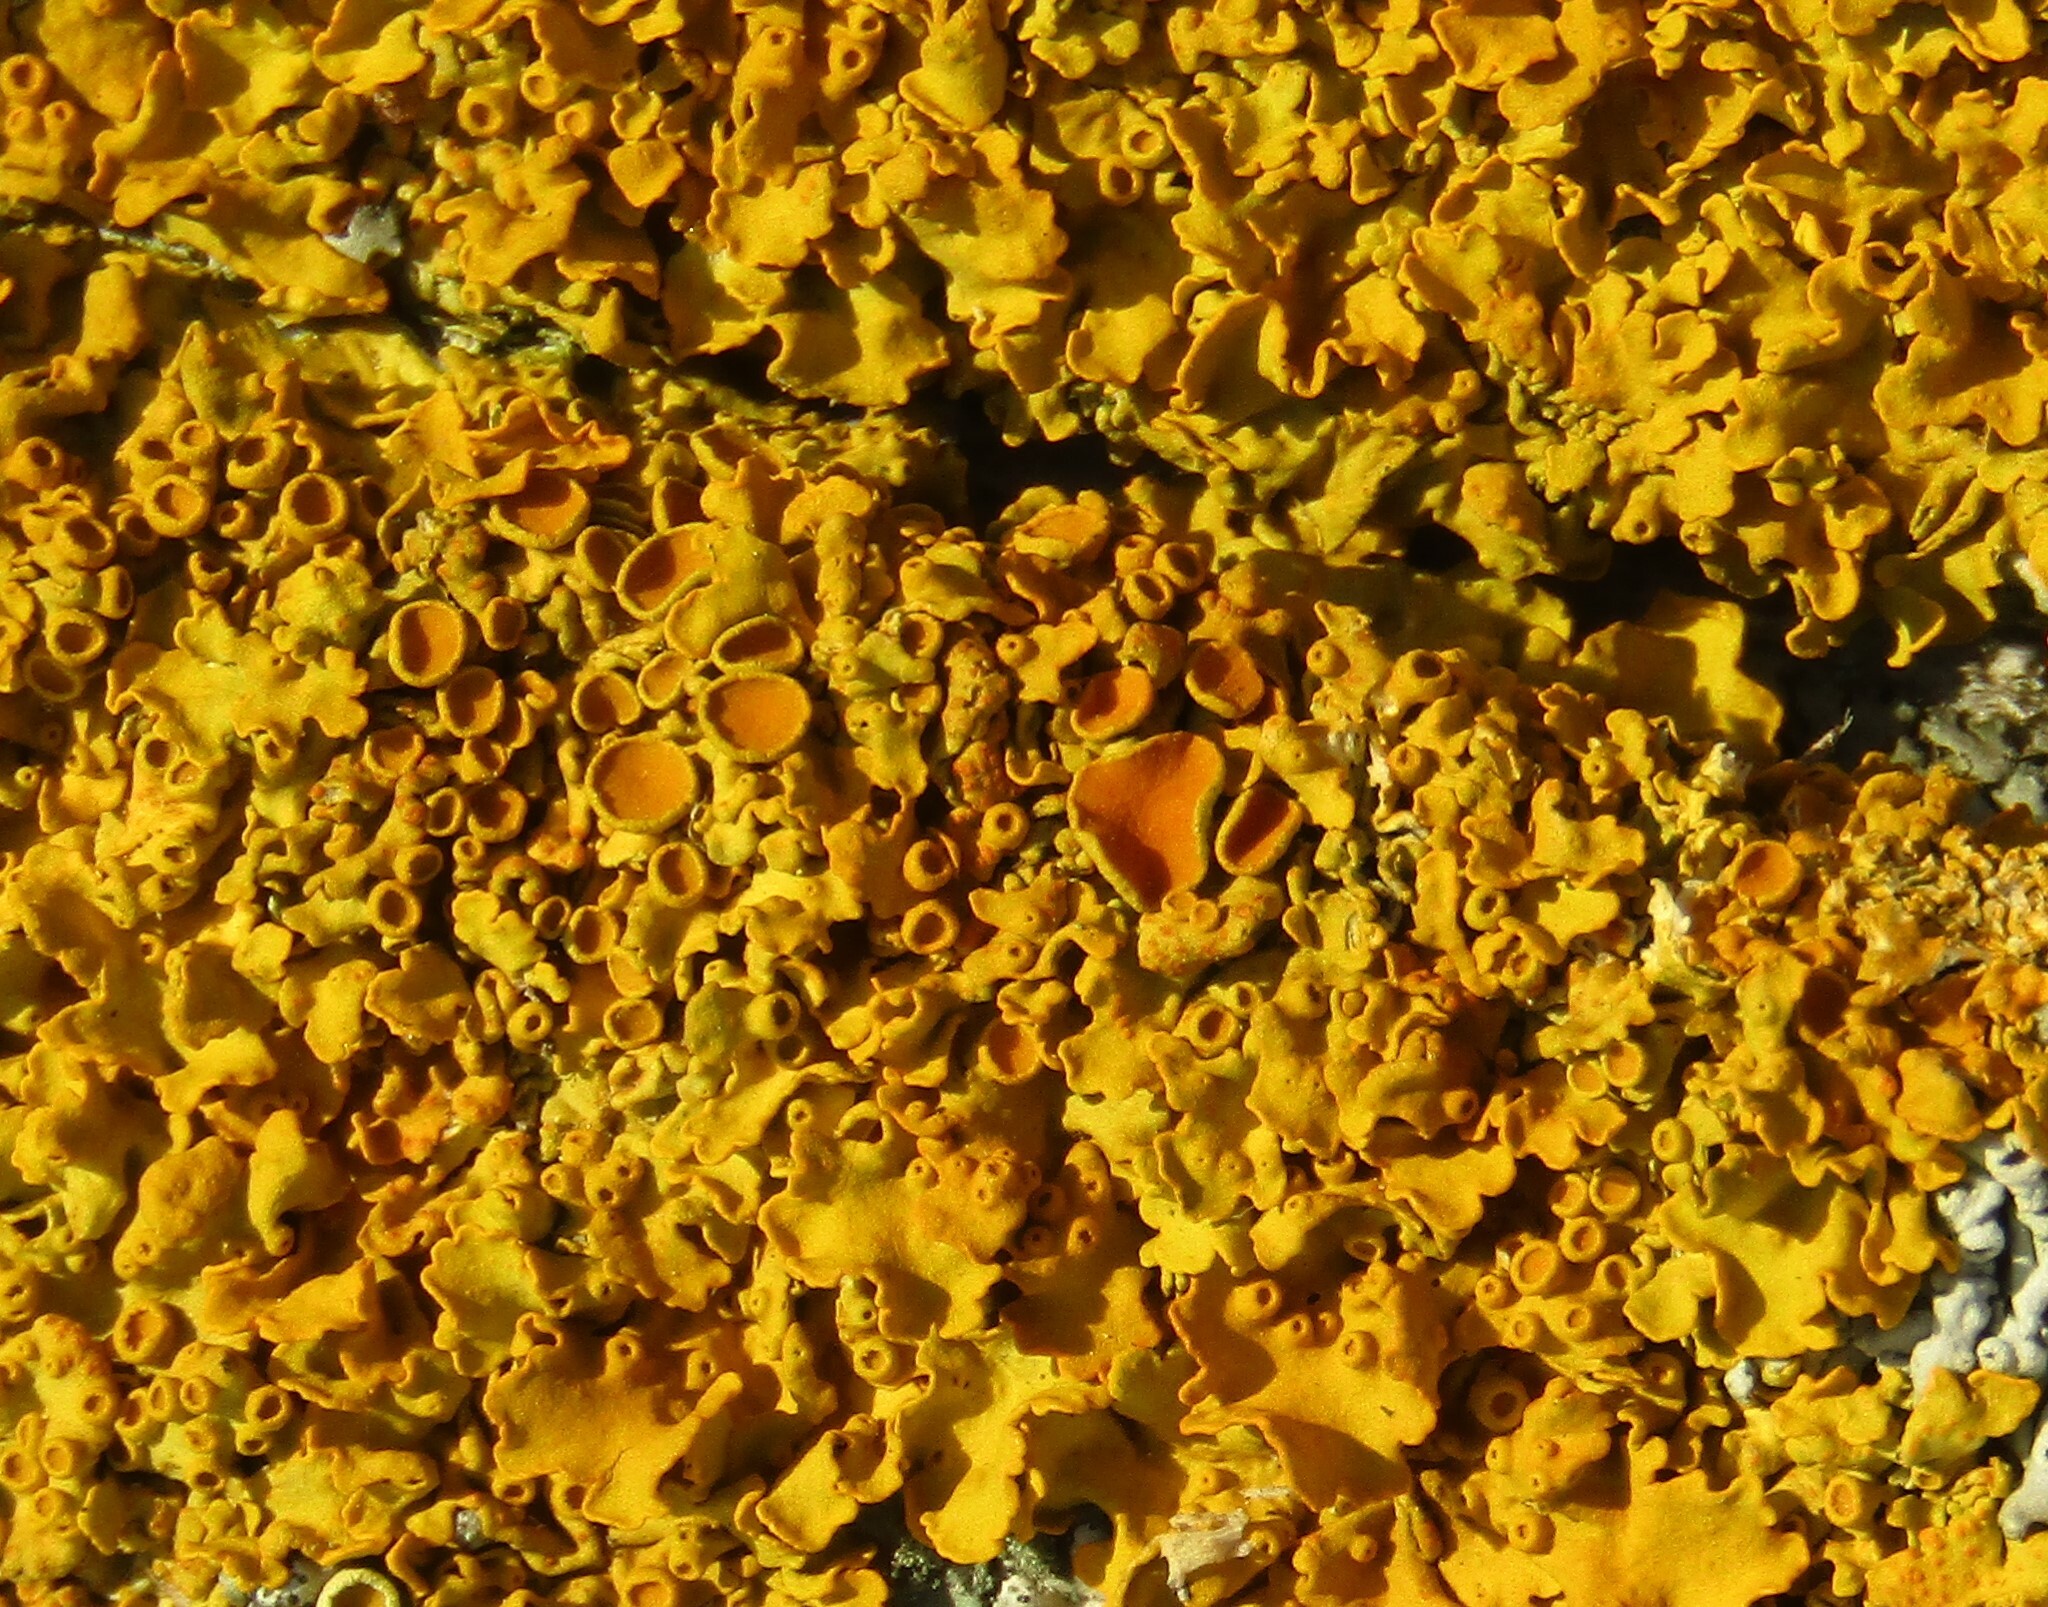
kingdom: Fungi
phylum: Ascomycota
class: Lecanoromycetes
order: Teloschistales
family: Teloschistaceae
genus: Xanthoria
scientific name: Xanthoria parietina
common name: Common orange lichen
